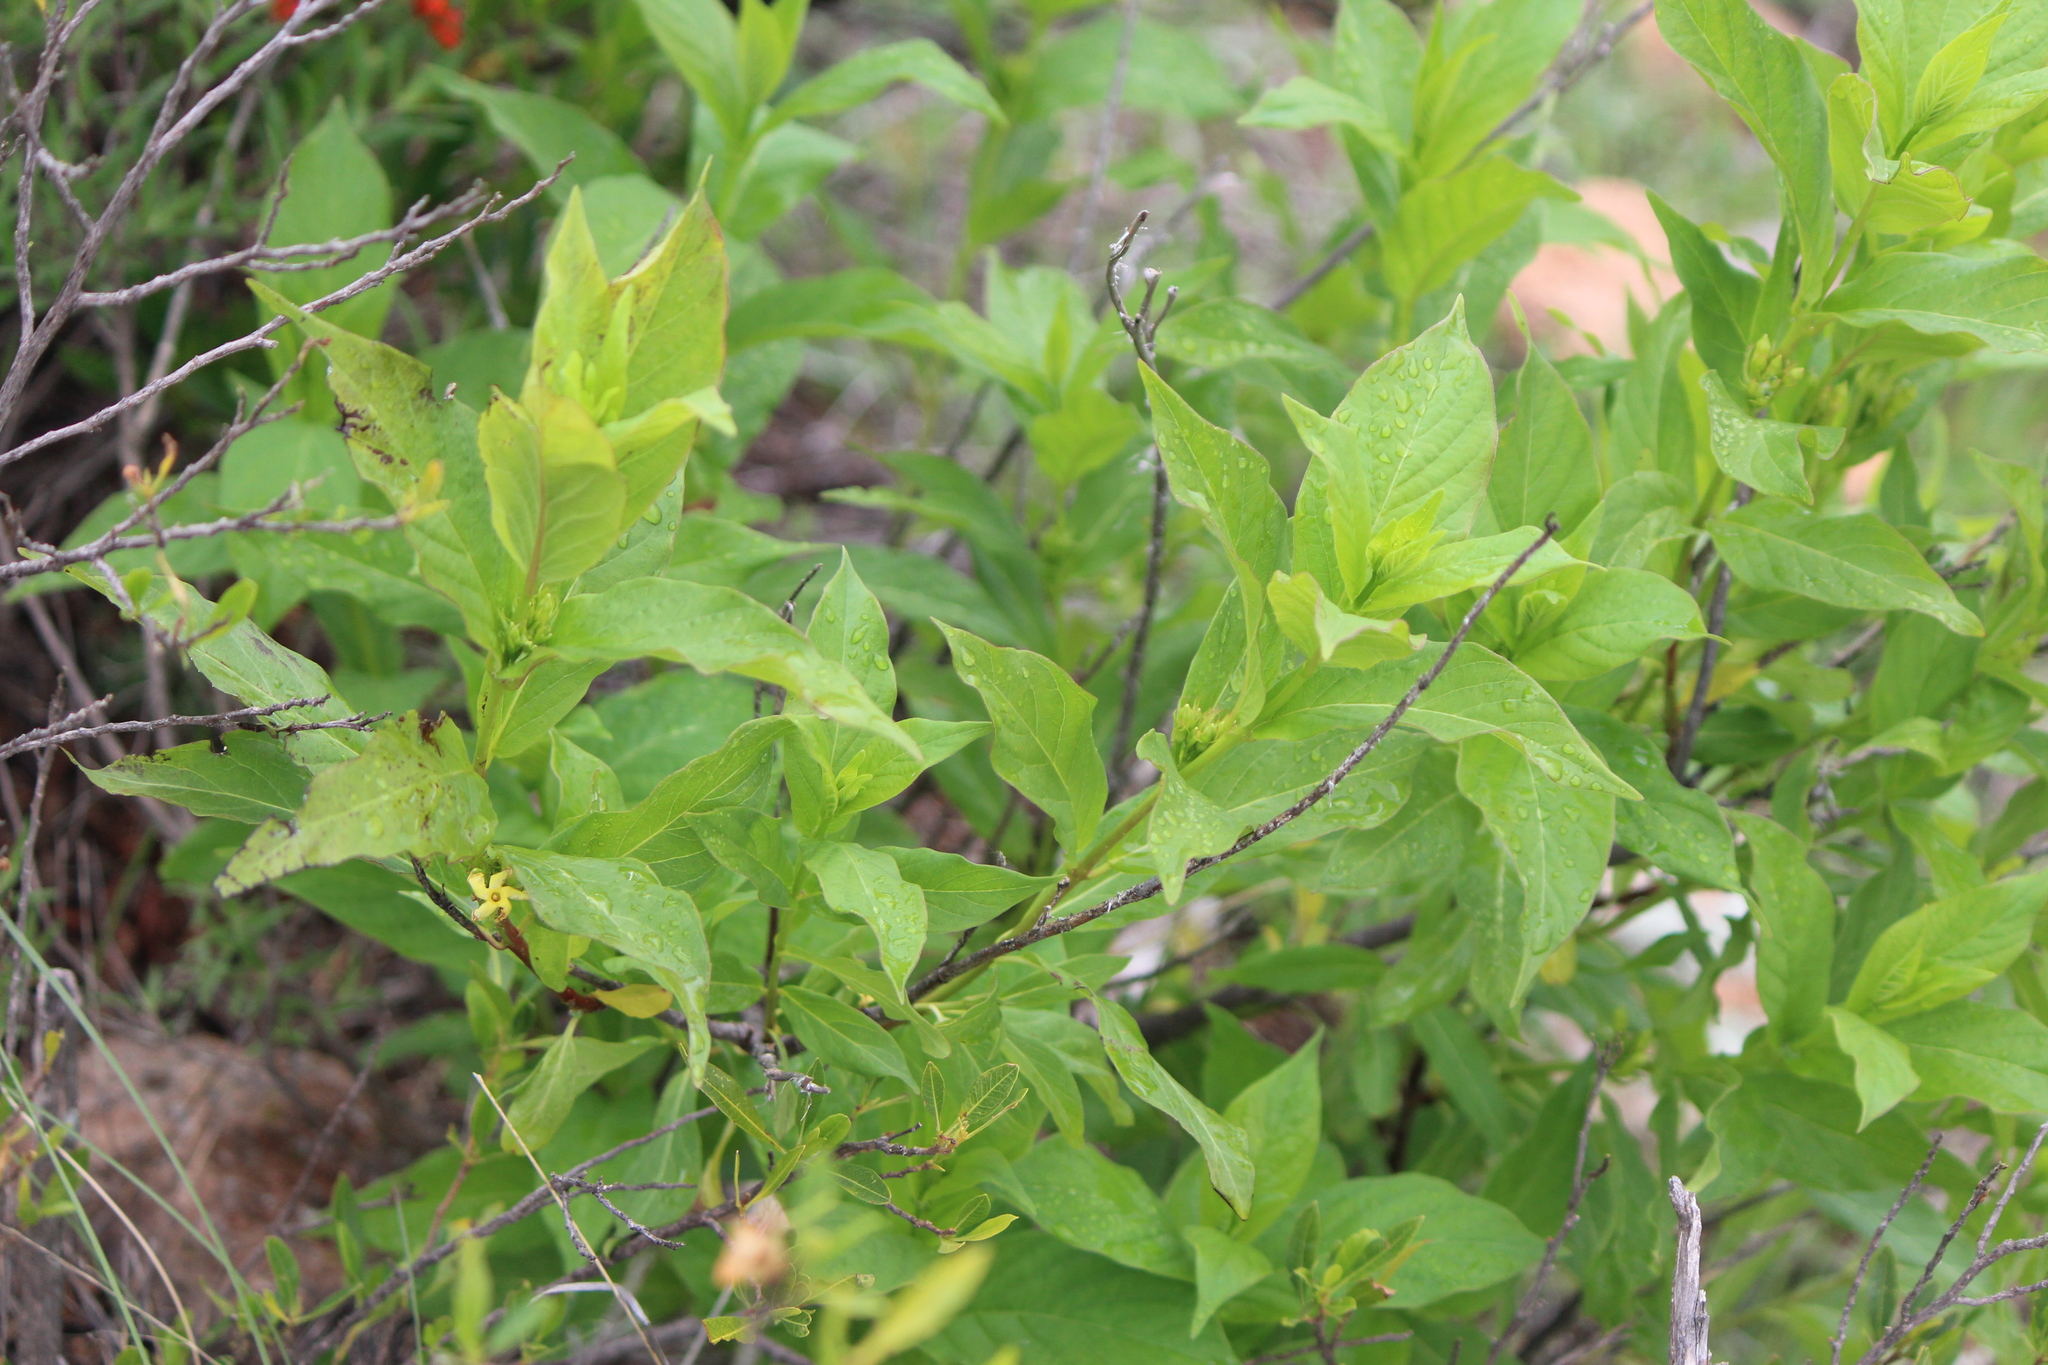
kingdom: Plantae
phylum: Tracheophyta
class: Magnoliopsida
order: Gentianales
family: Apocynaceae
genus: Mandevilla
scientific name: Mandevilla foliosa
